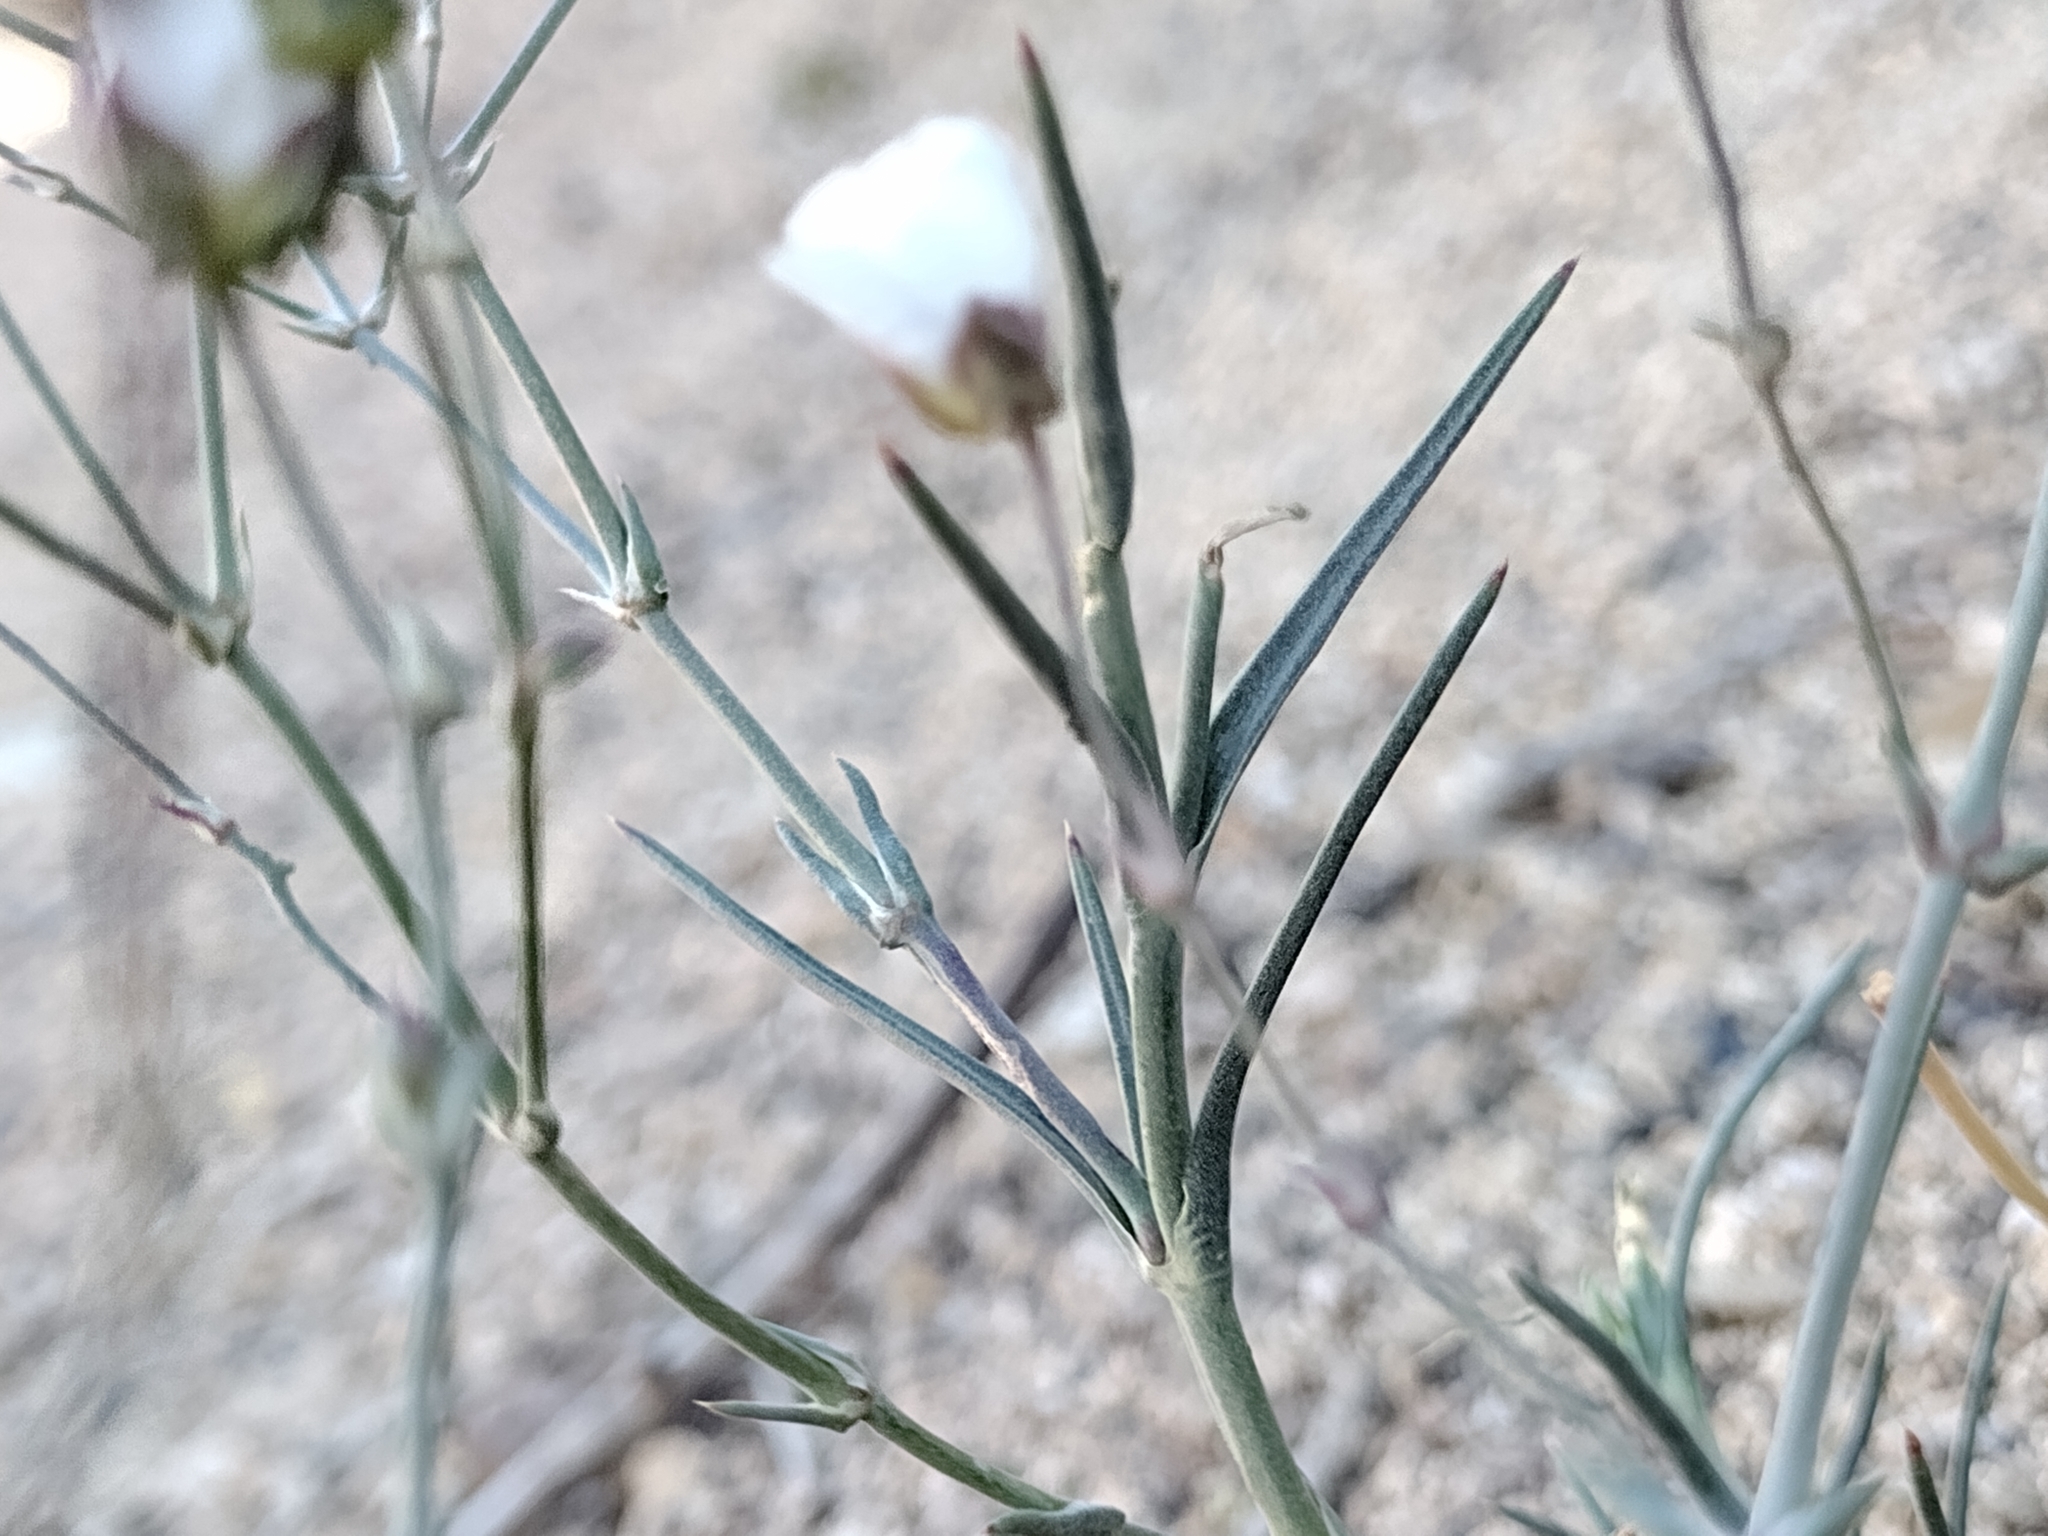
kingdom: Plantae
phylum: Tracheophyta
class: Magnoliopsida
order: Caryophyllales
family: Caryophyllaceae
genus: Eremogone
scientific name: Eremogone macradenia
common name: Mohave sandwort
